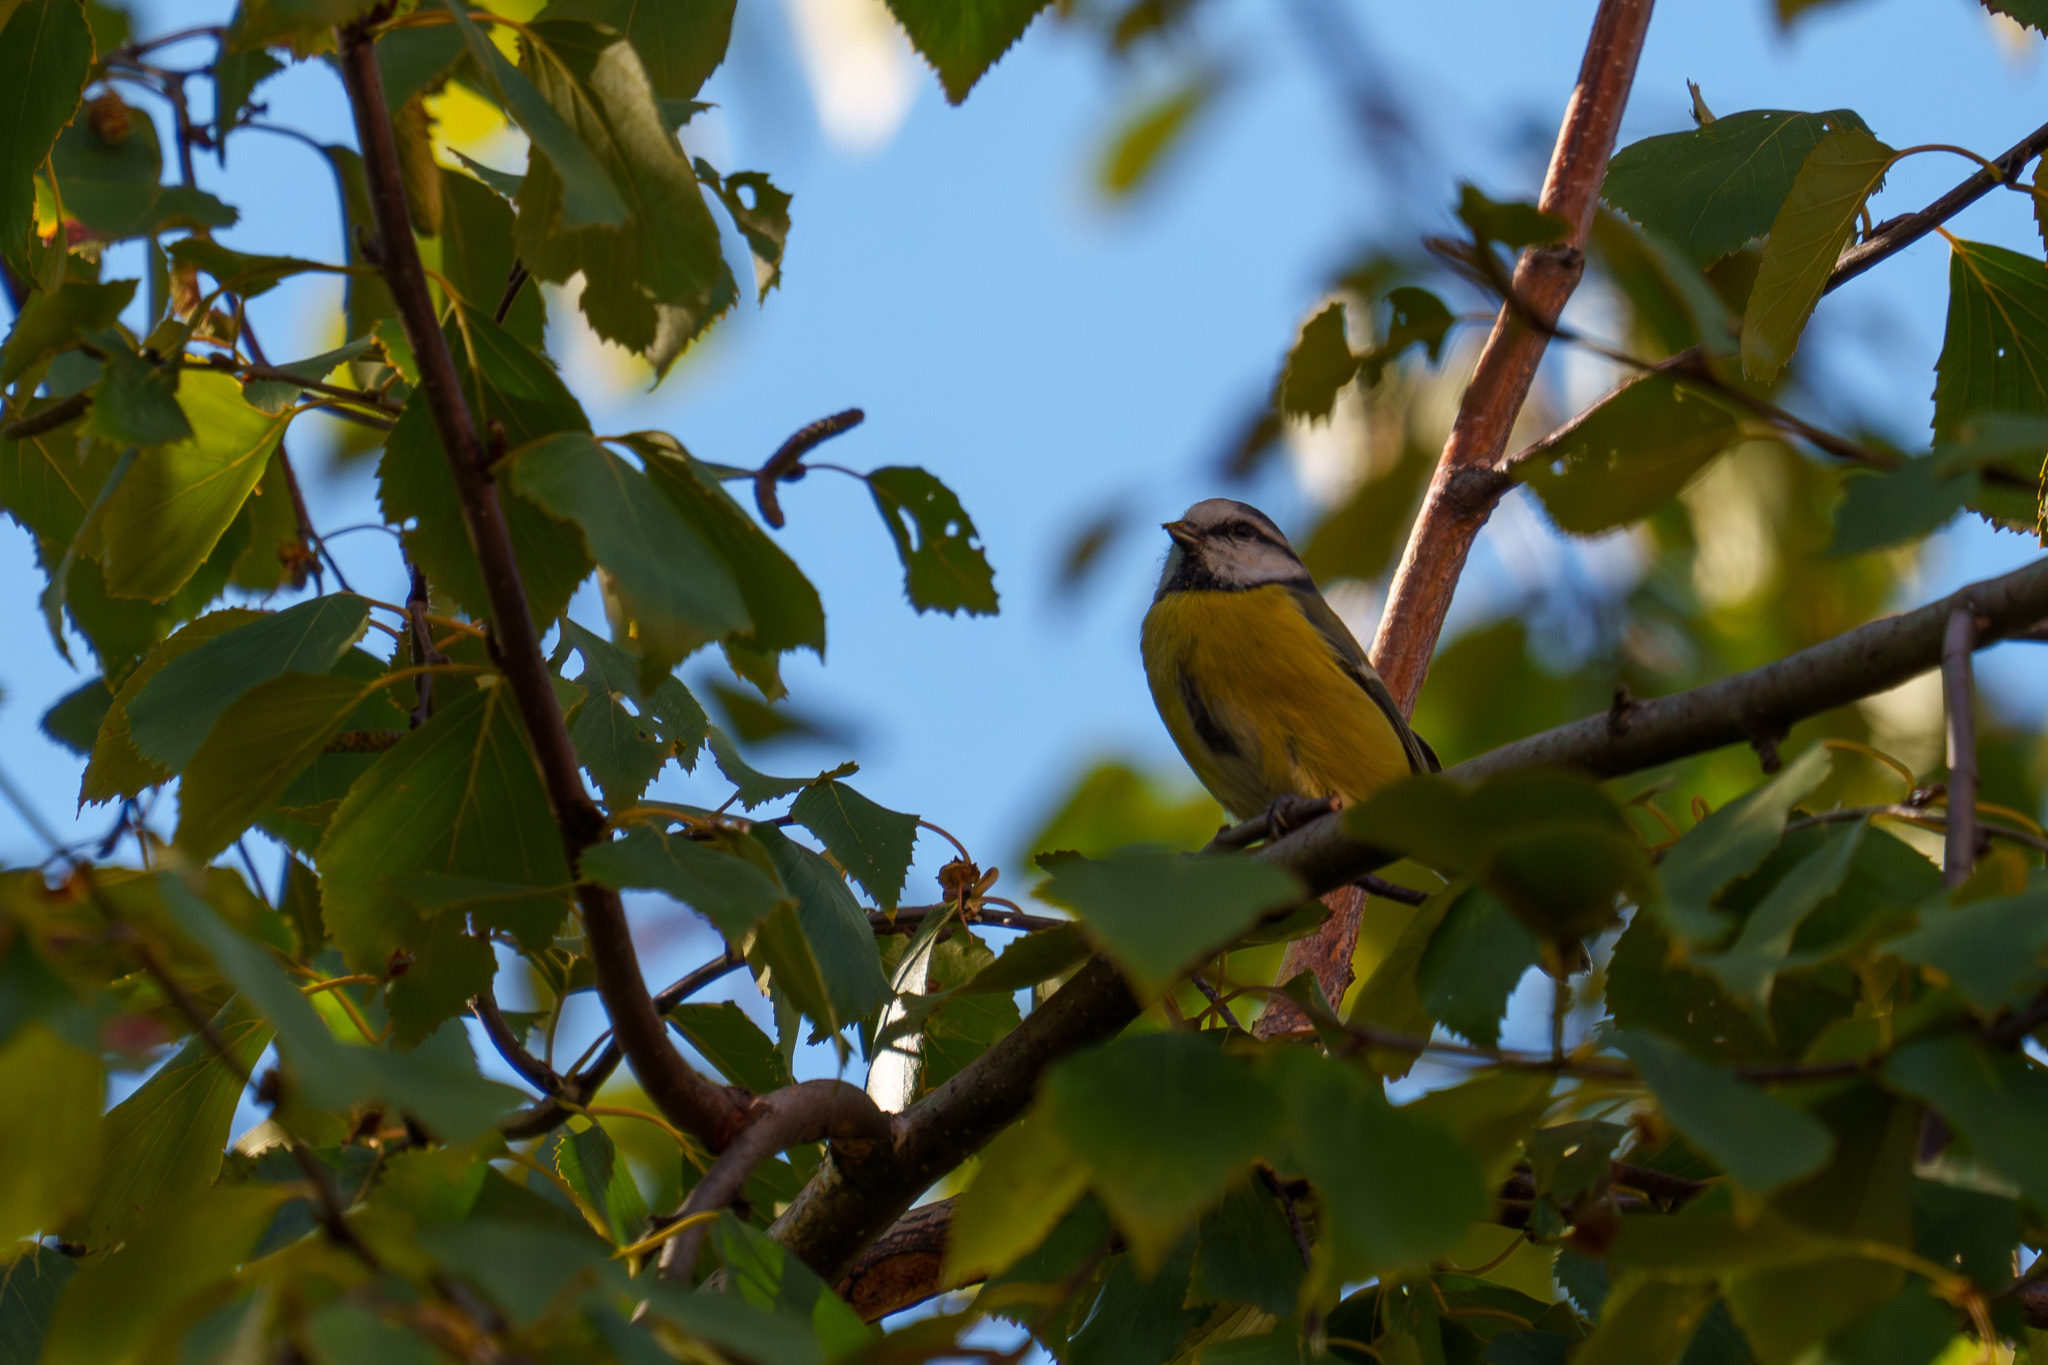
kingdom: Animalia
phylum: Chordata
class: Aves
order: Passeriformes
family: Paridae
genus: Cyanistes
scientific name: Cyanistes caeruleus
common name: Eurasian blue tit
